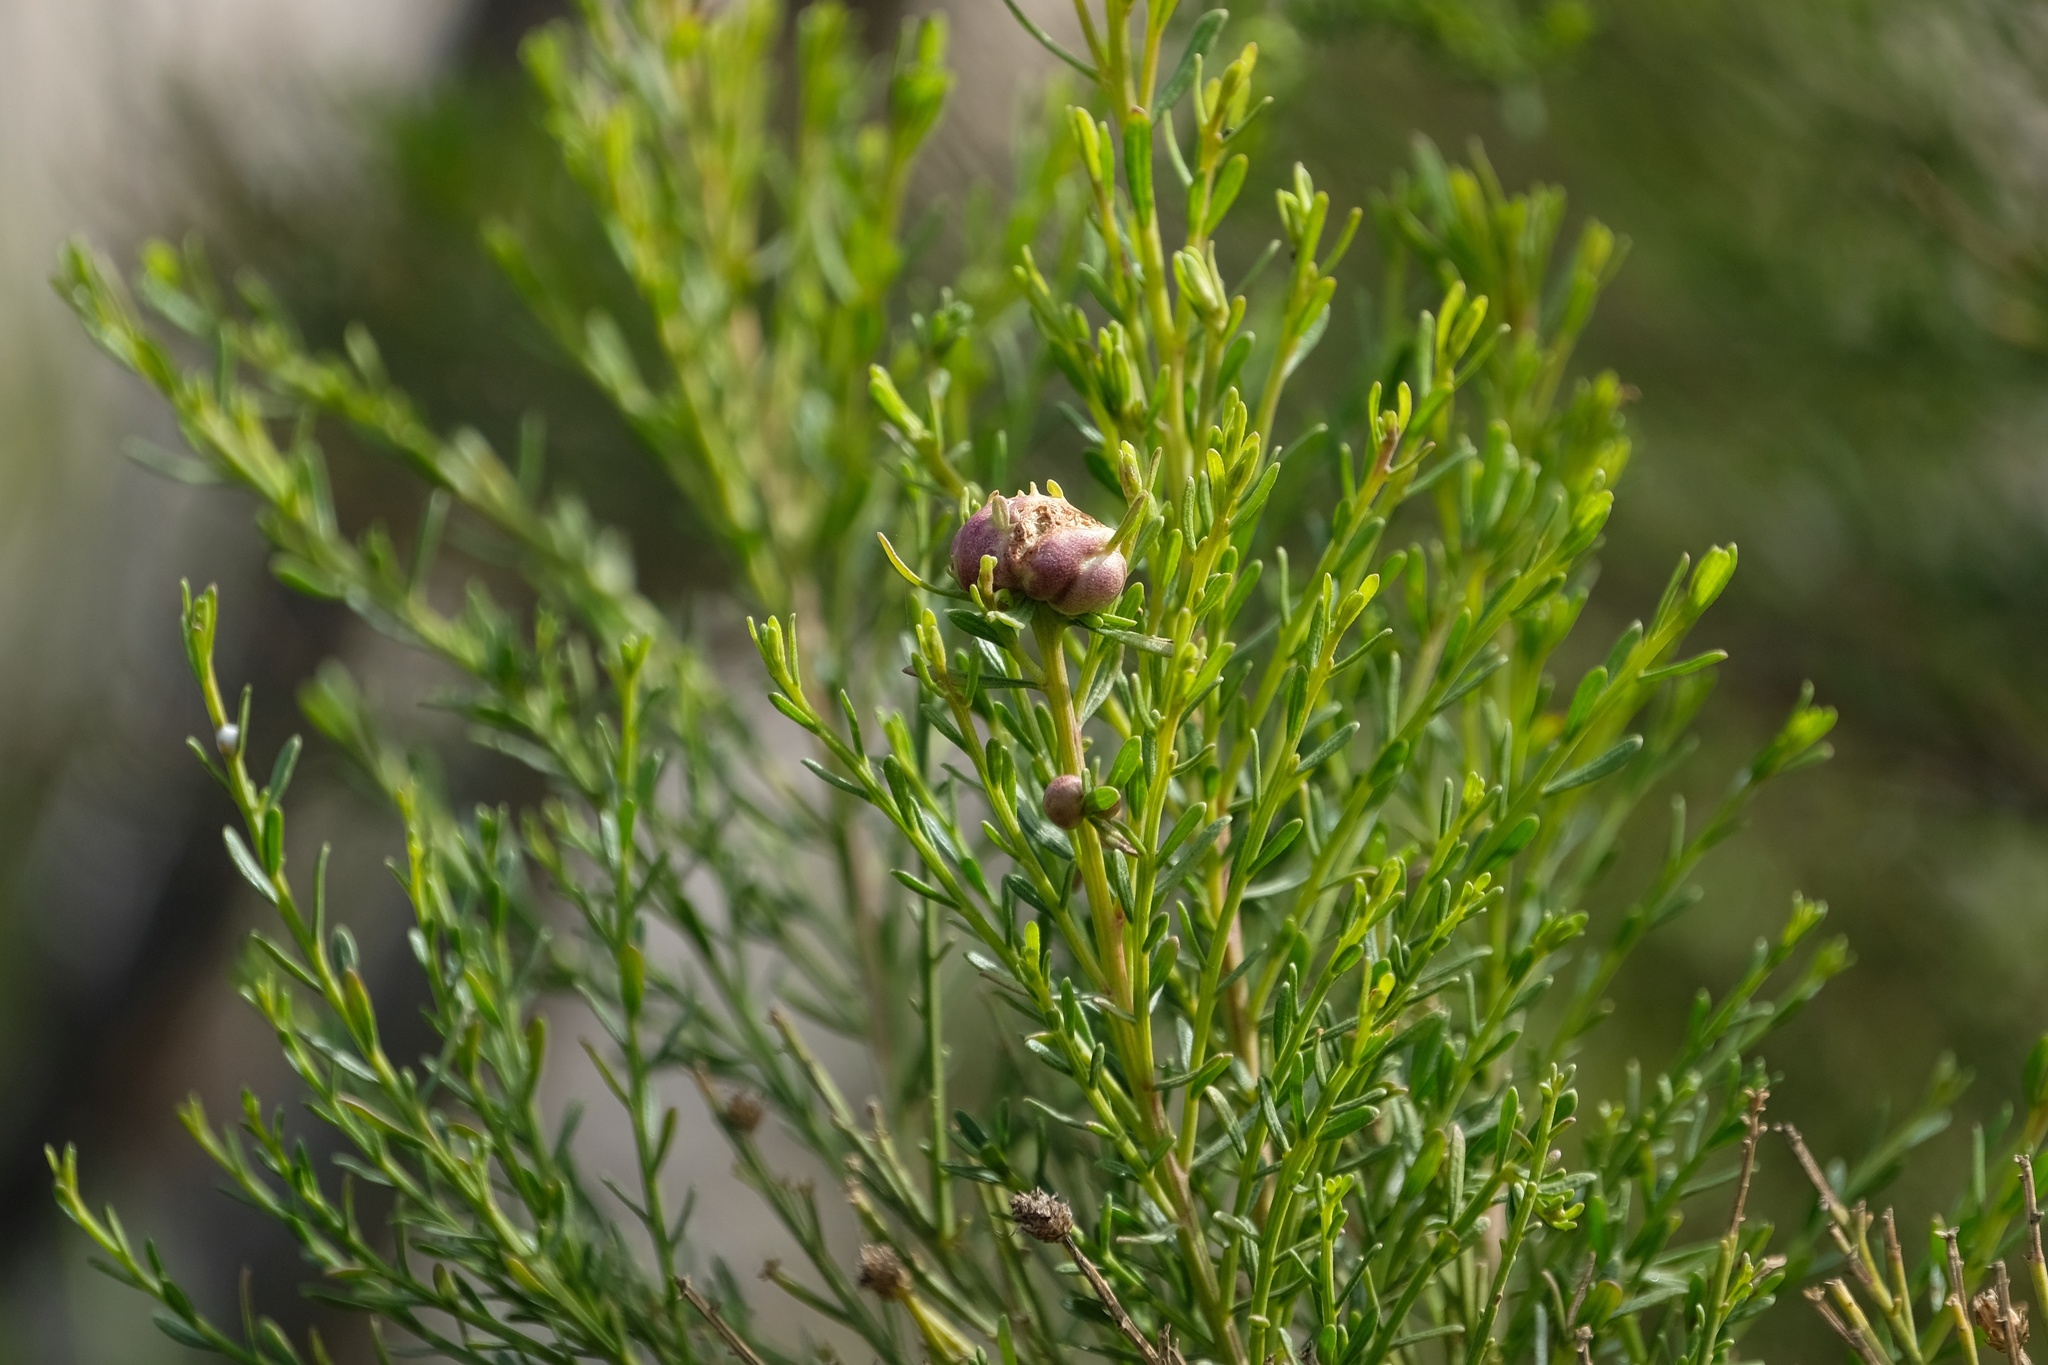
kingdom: Animalia
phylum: Arthropoda
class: Insecta
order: Diptera
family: Cecidomyiidae
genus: Rhopalomyia
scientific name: Rhopalomyia californica
